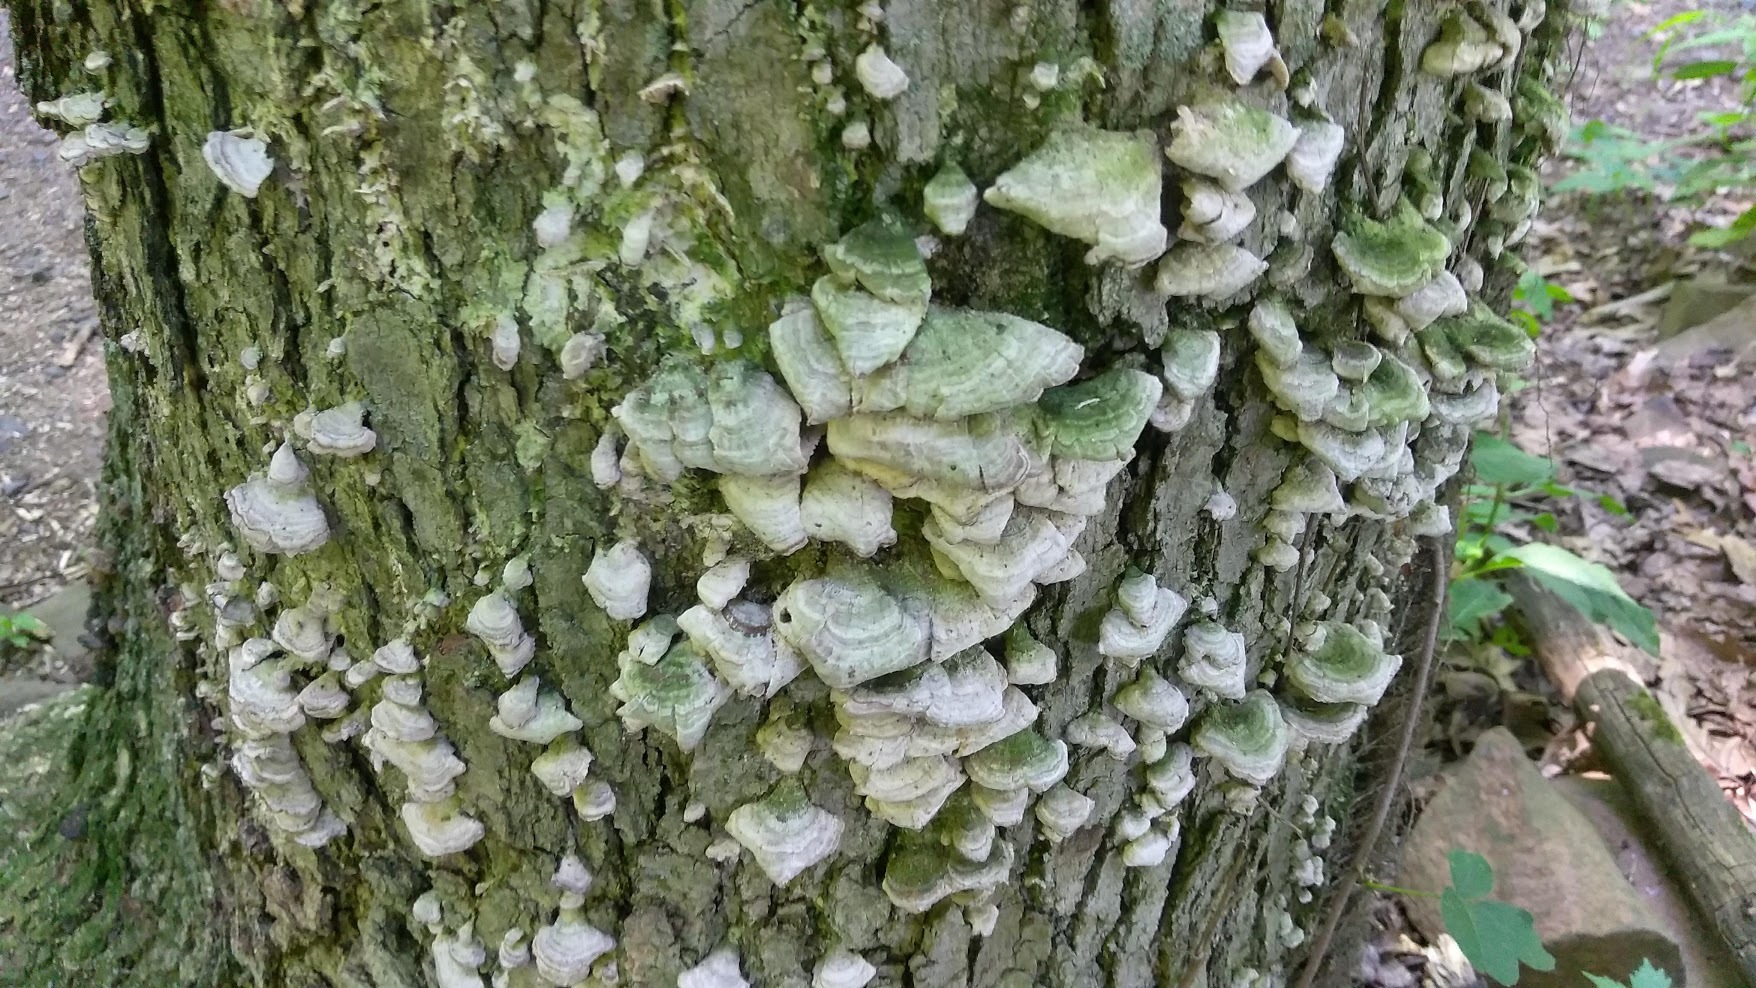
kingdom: Fungi
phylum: Basidiomycota
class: Agaricomycetes
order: Hymenochaetales
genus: Trichaptum
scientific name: Trichaptum biforme
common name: Violet-toothed polypore
